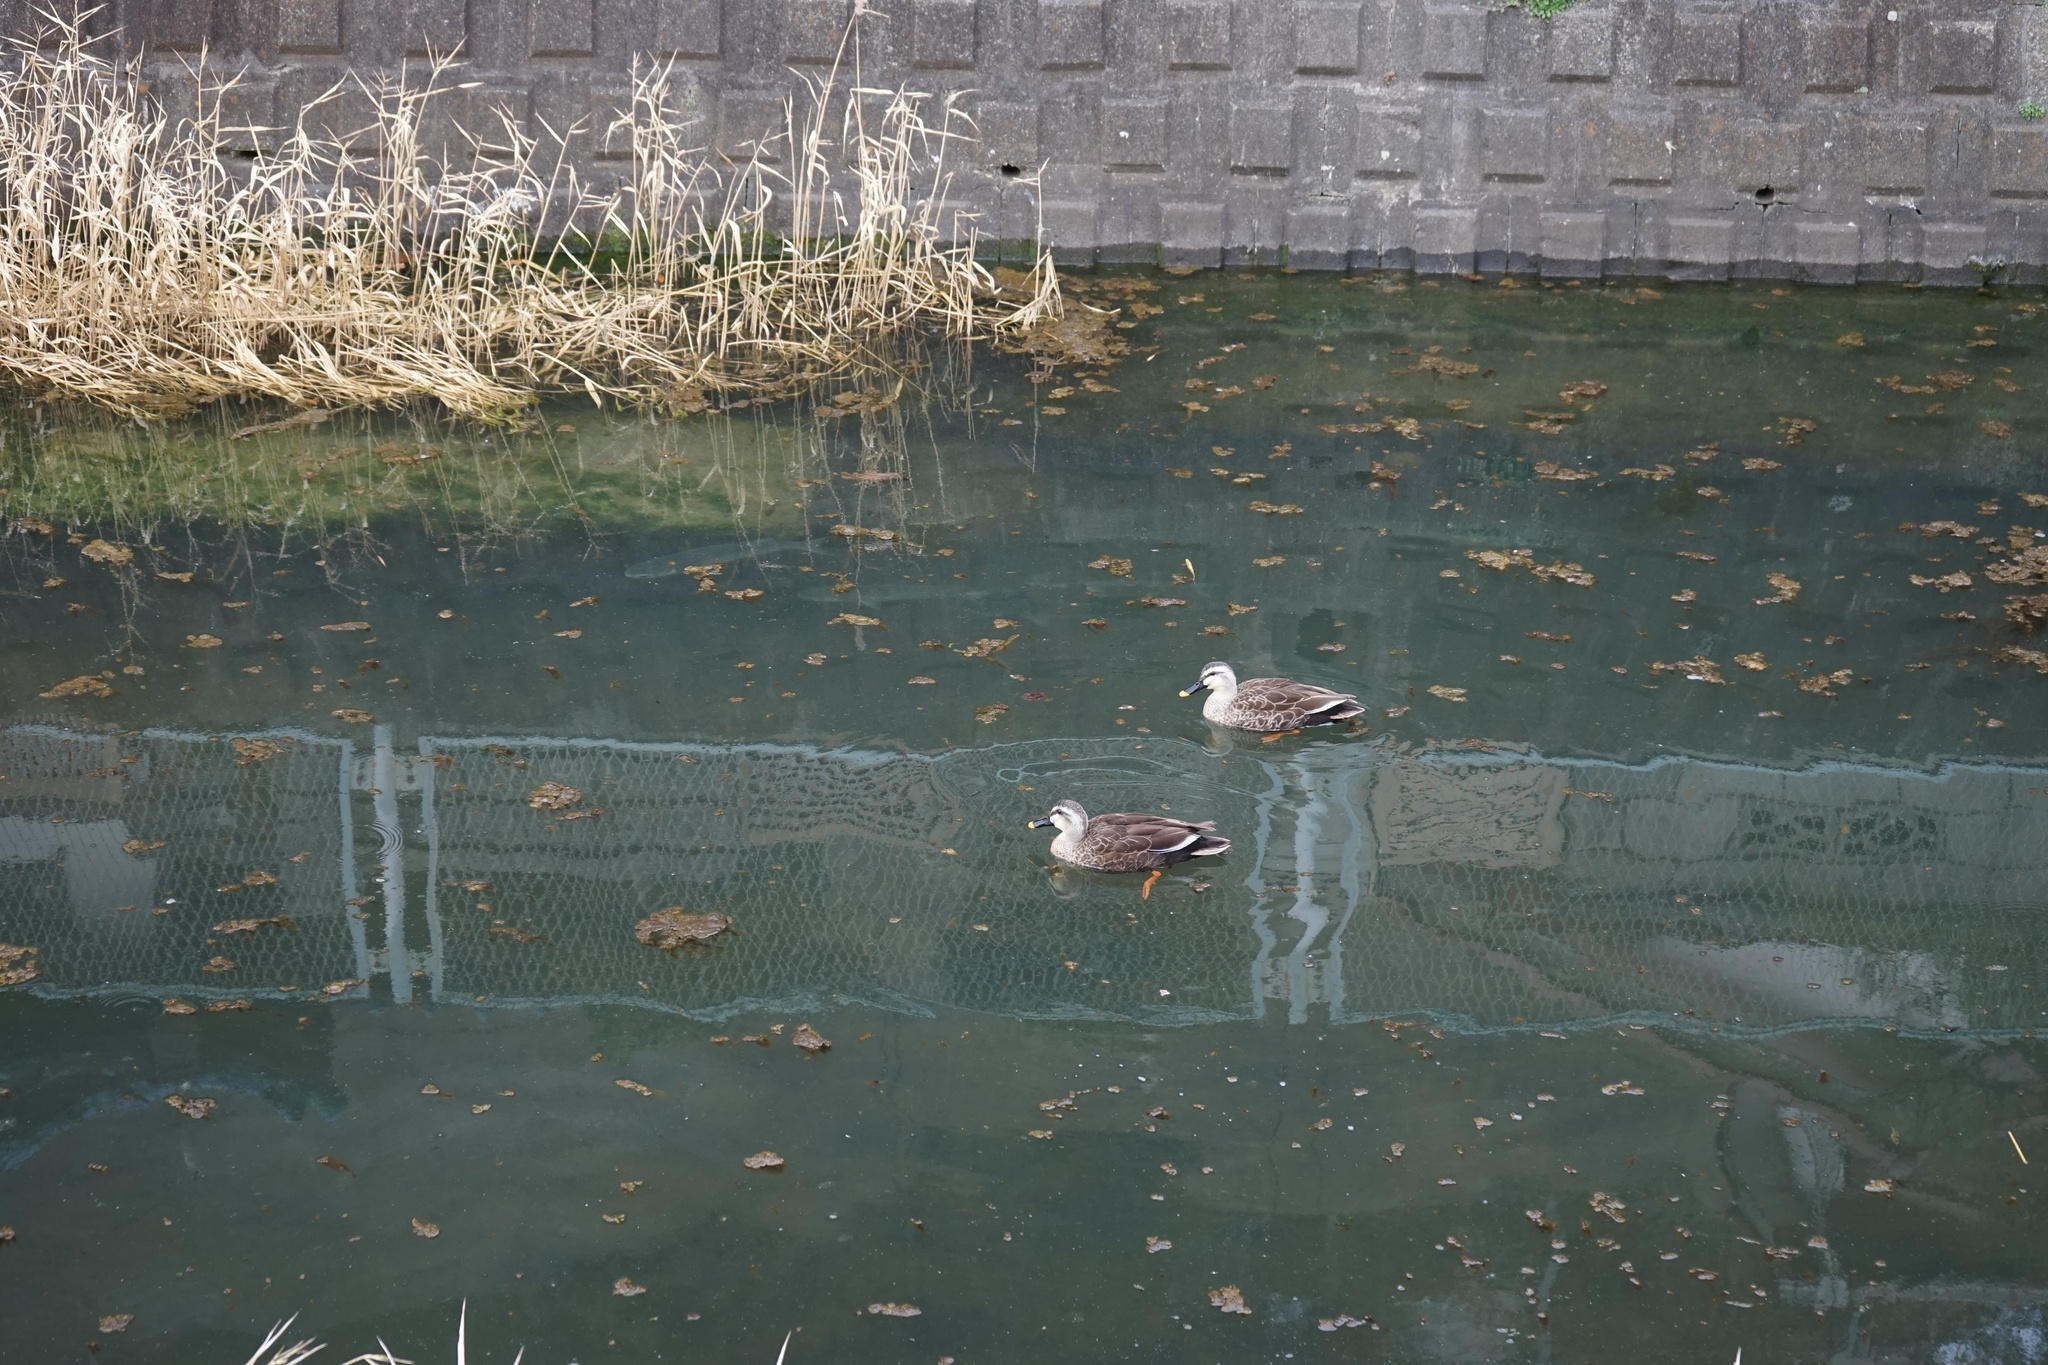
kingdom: Animalia
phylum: Chordata
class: Aves
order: Anseriformes
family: Anatidae
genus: Anas
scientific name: Anas zonorhyncha
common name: Eastern spot-billed duck
